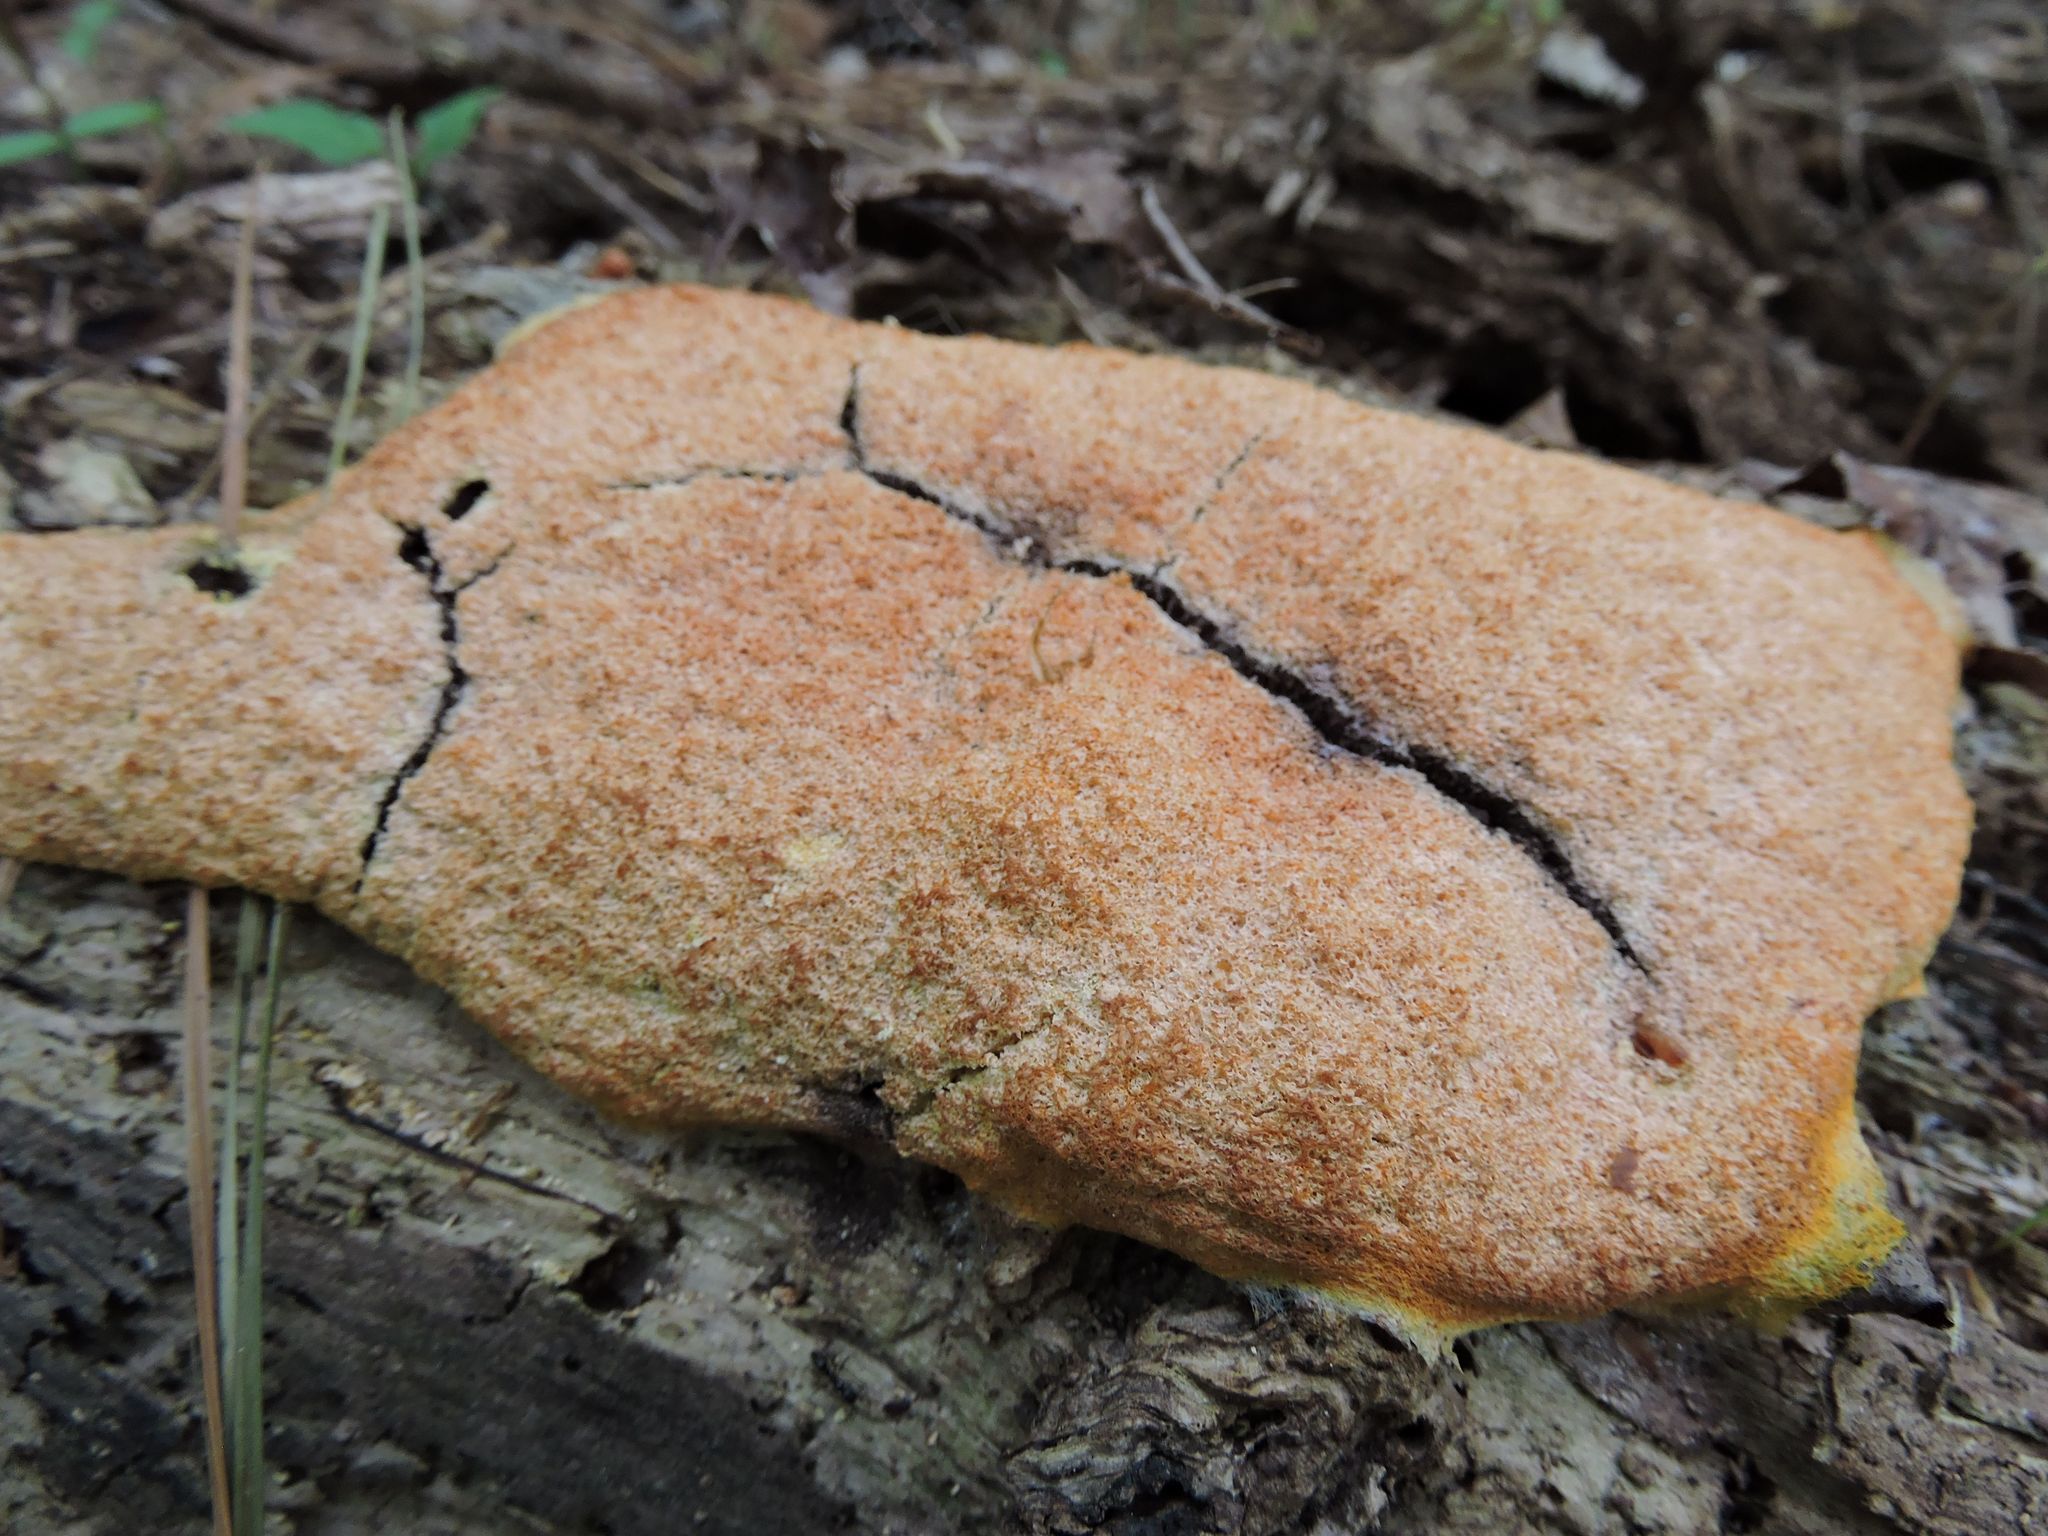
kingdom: Protozoa
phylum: Mycetozoa
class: Myxomycetes
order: Physarales
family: Physaraceae
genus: Fuligo
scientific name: Fuligo septica
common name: Dog vomit slime mold
